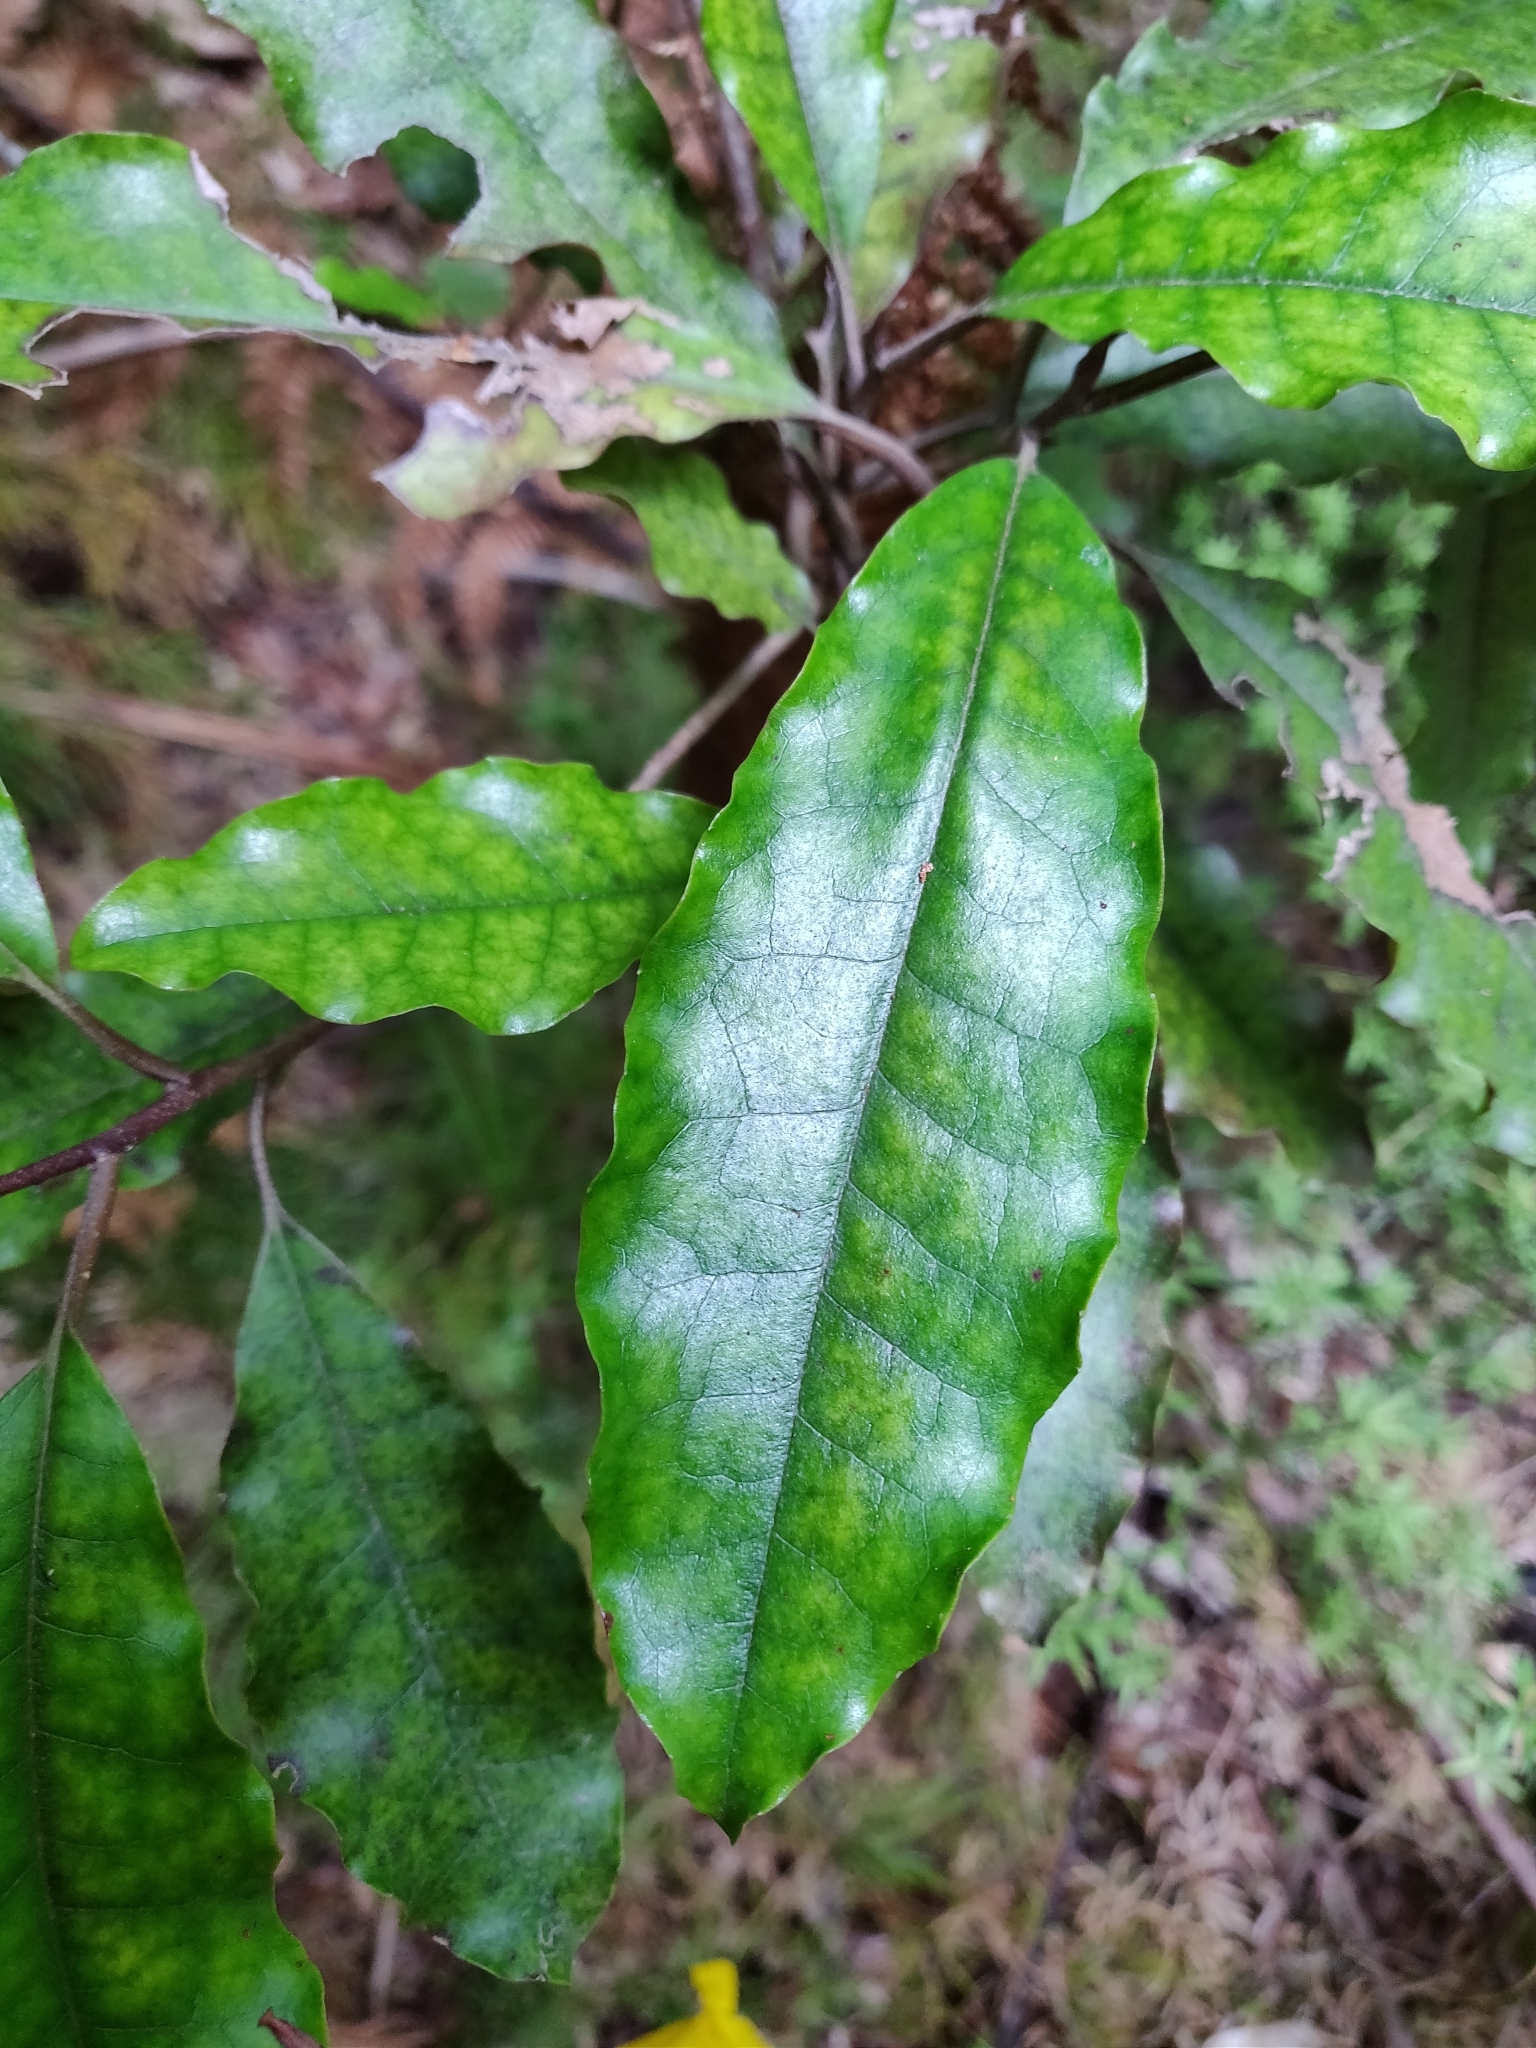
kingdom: Plantae
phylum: Tracheophyta
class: Magnoliopsida
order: Paracryphiales
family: Paracryphiaceae
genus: Quintinia
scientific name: Quintinia serrata
